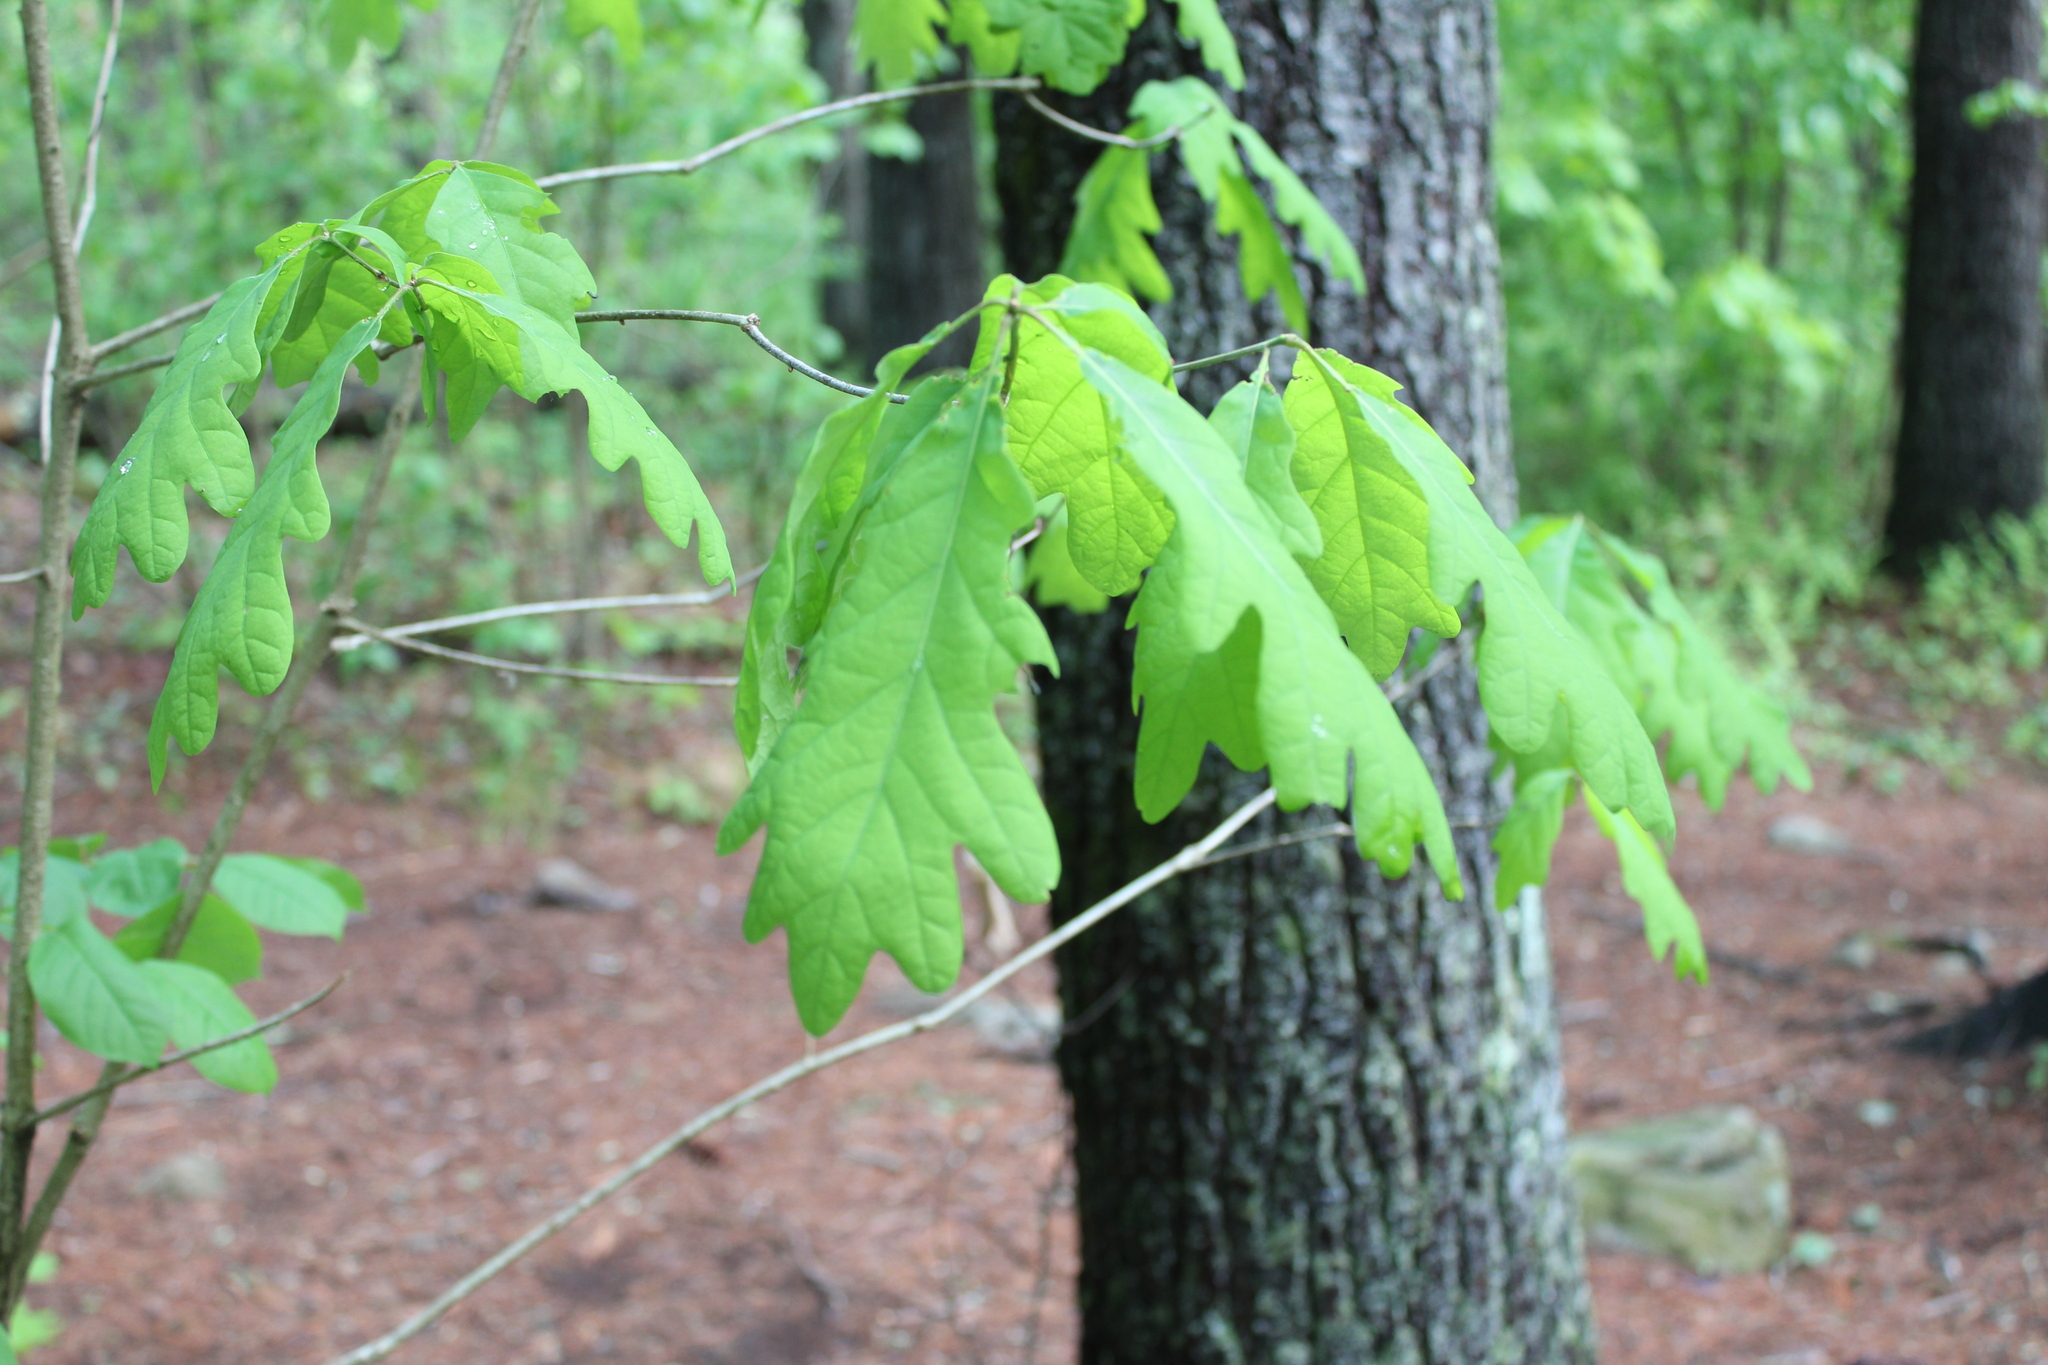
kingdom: Plantae
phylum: Tracheophyta
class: Magnoliopsida
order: Fagales
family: Fagaceae
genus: Quercus
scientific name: Quercus alba
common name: White oak
